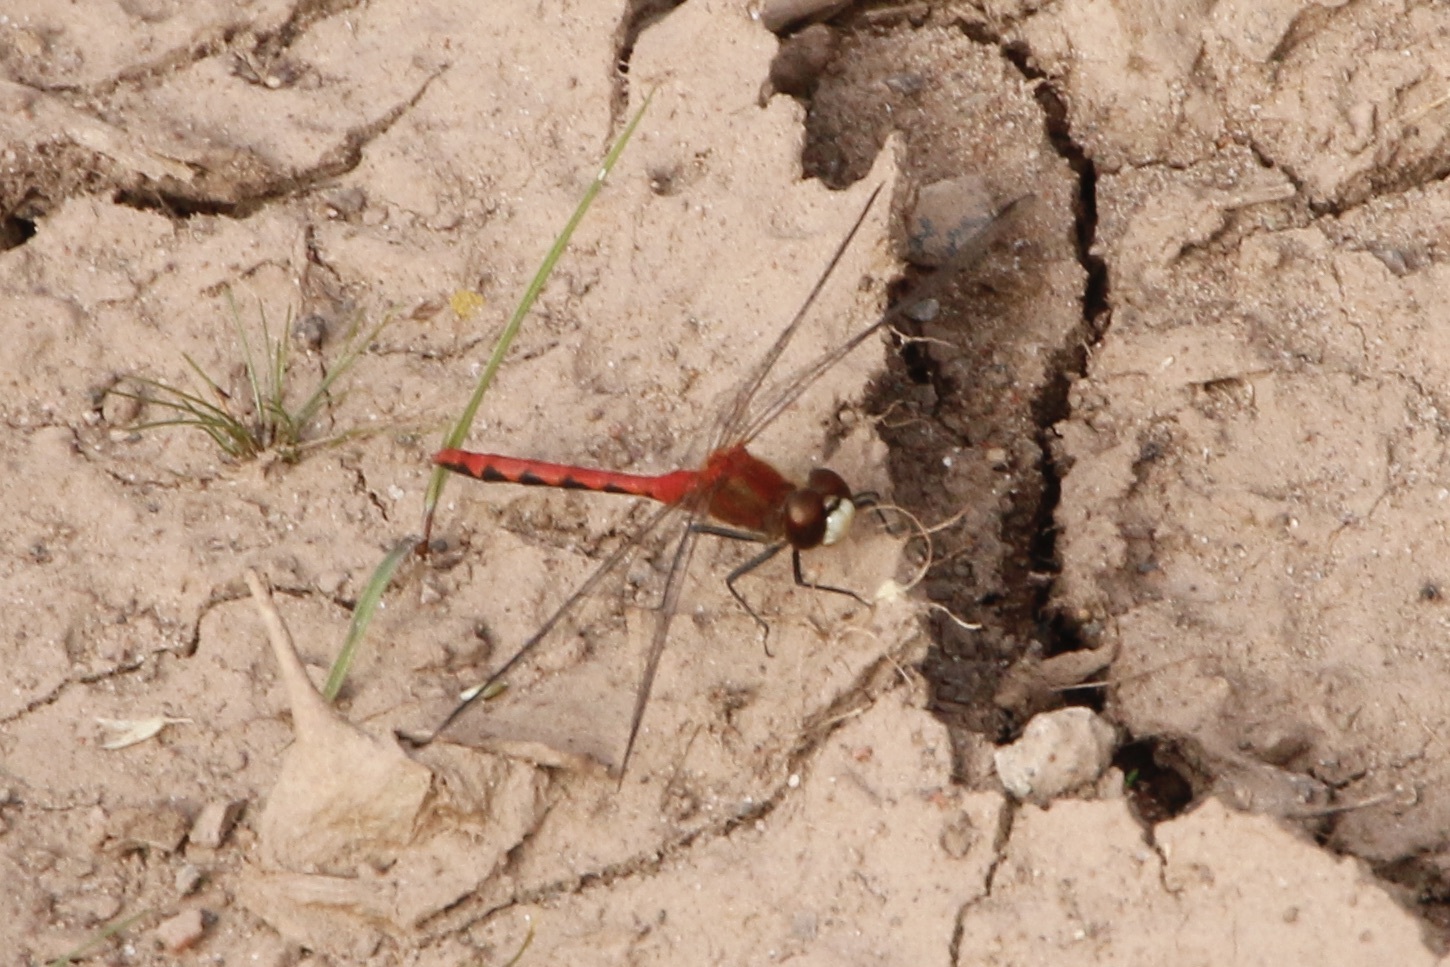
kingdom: Animalia
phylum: Arthropoda
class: Insecta
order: Odonata
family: Libellulidae
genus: Sympetrum
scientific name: Sympetrum obtrusum
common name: White-faced meadowhawk
